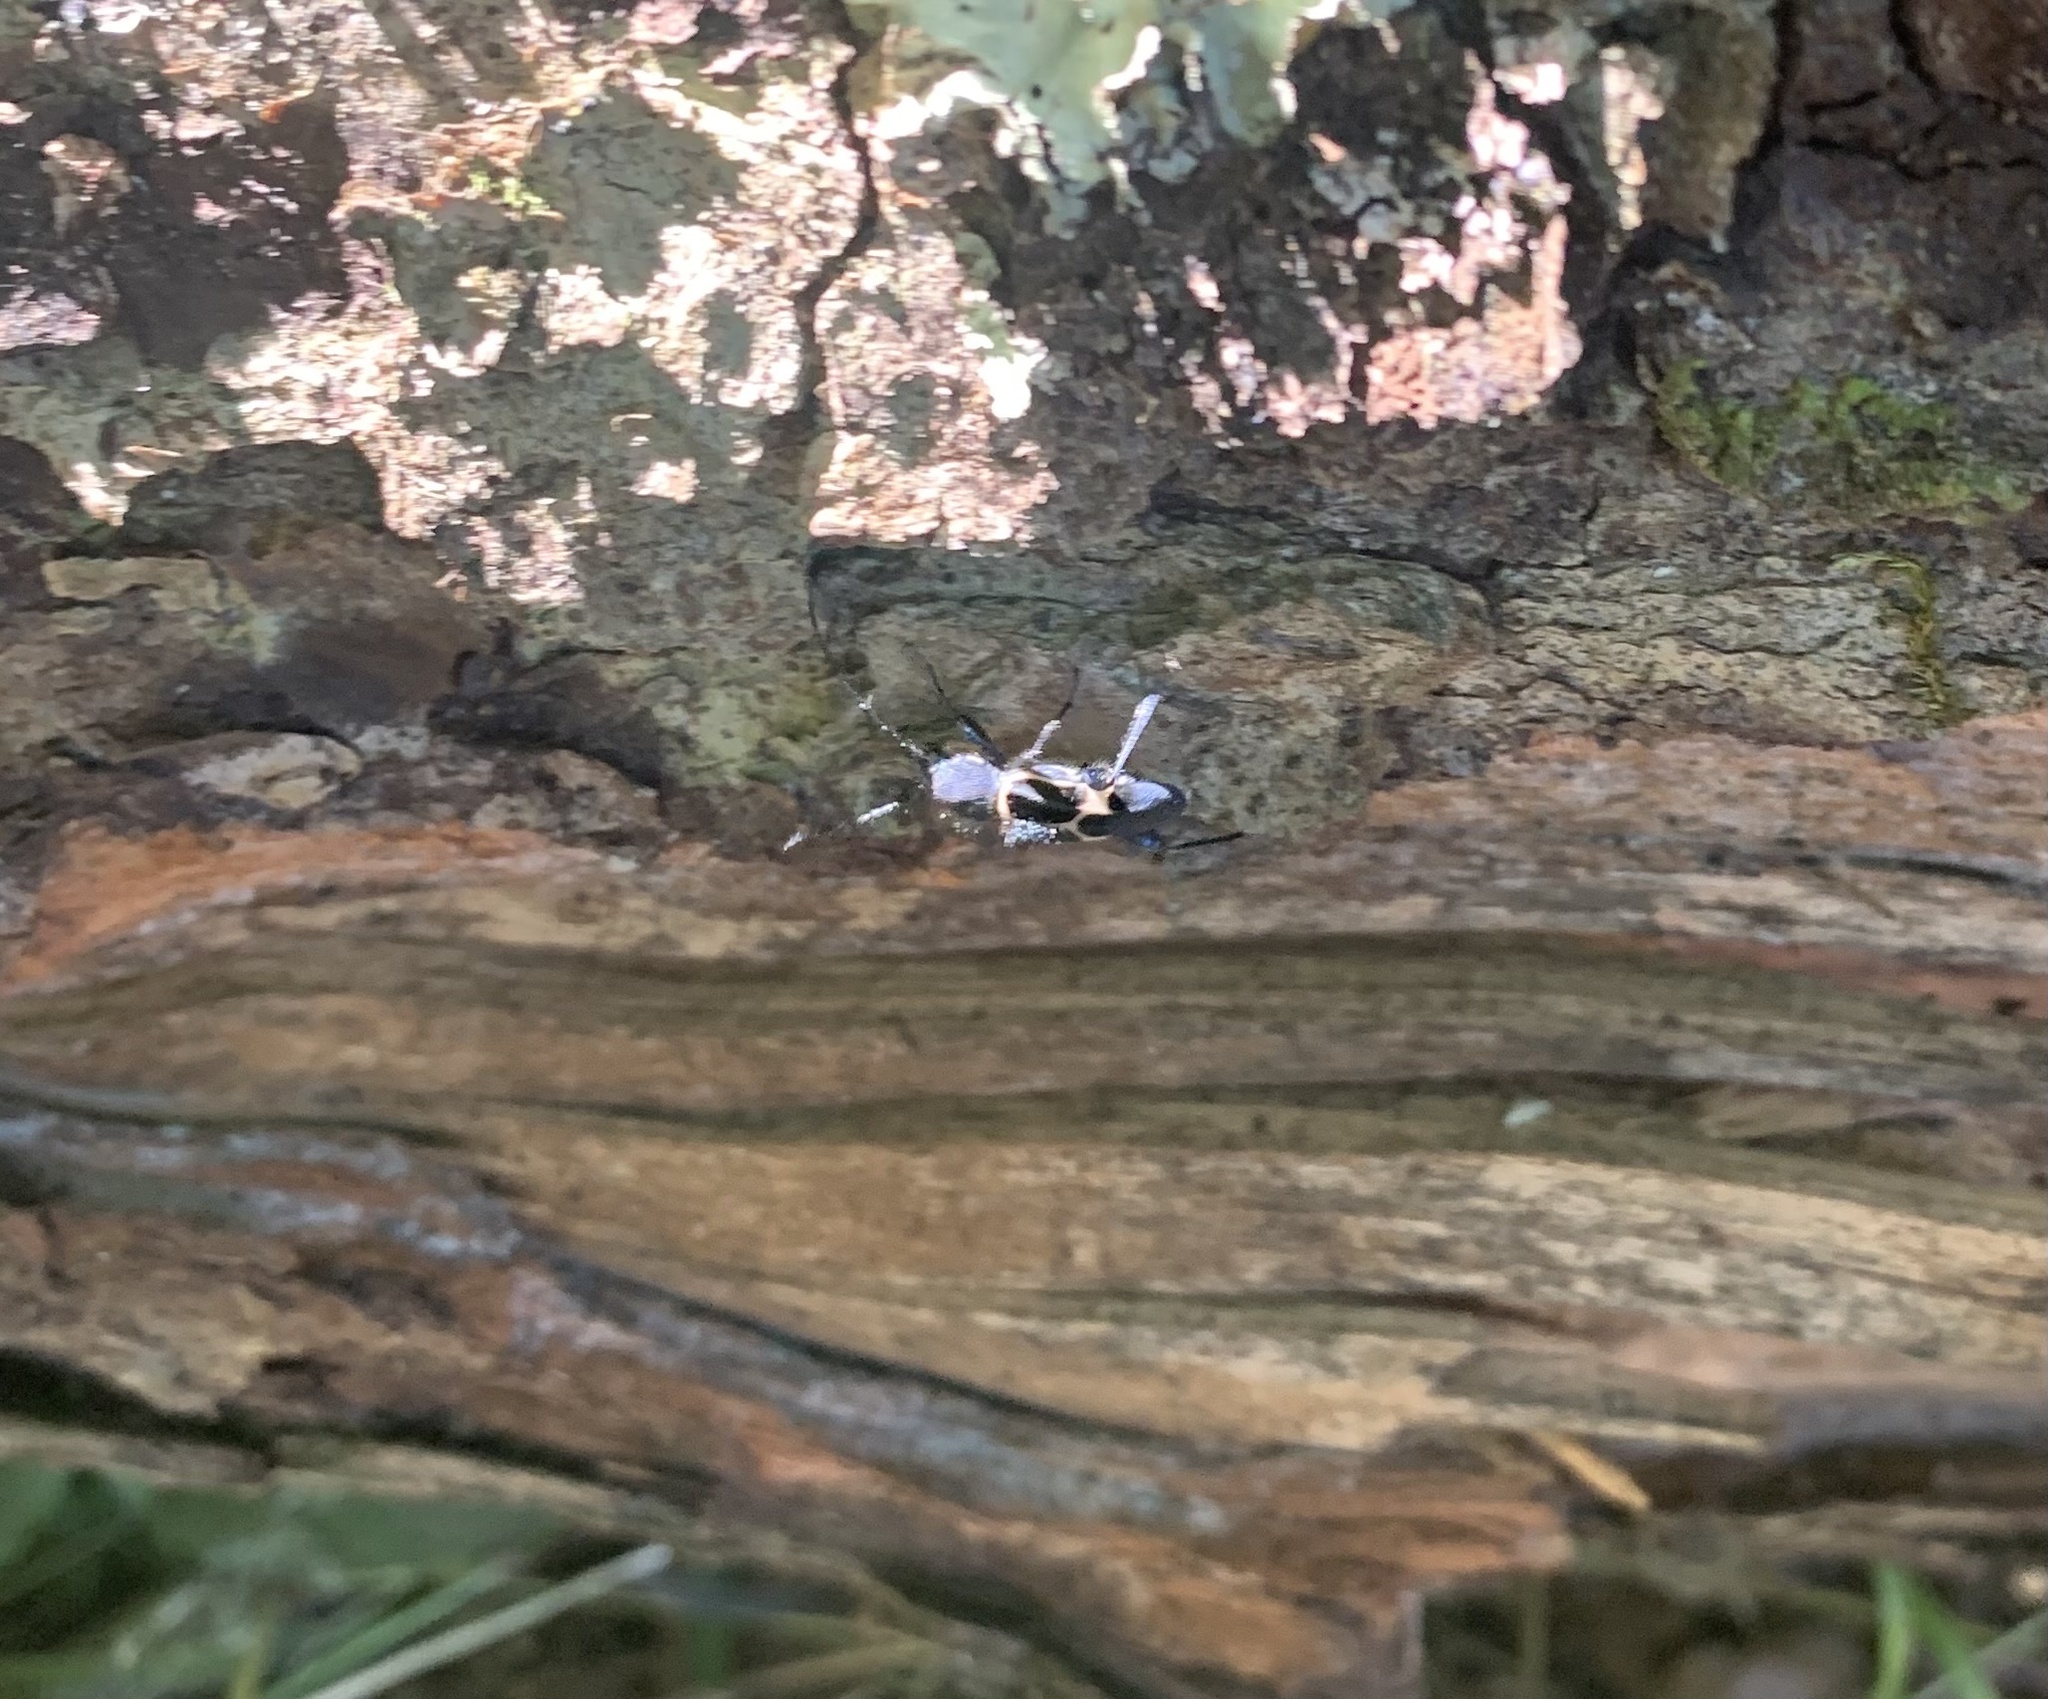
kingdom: Animalia
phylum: Arthropoda
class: Insecta
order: Coleoptera
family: Cerambycidae
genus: Calydon
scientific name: Calydon submetallicum
